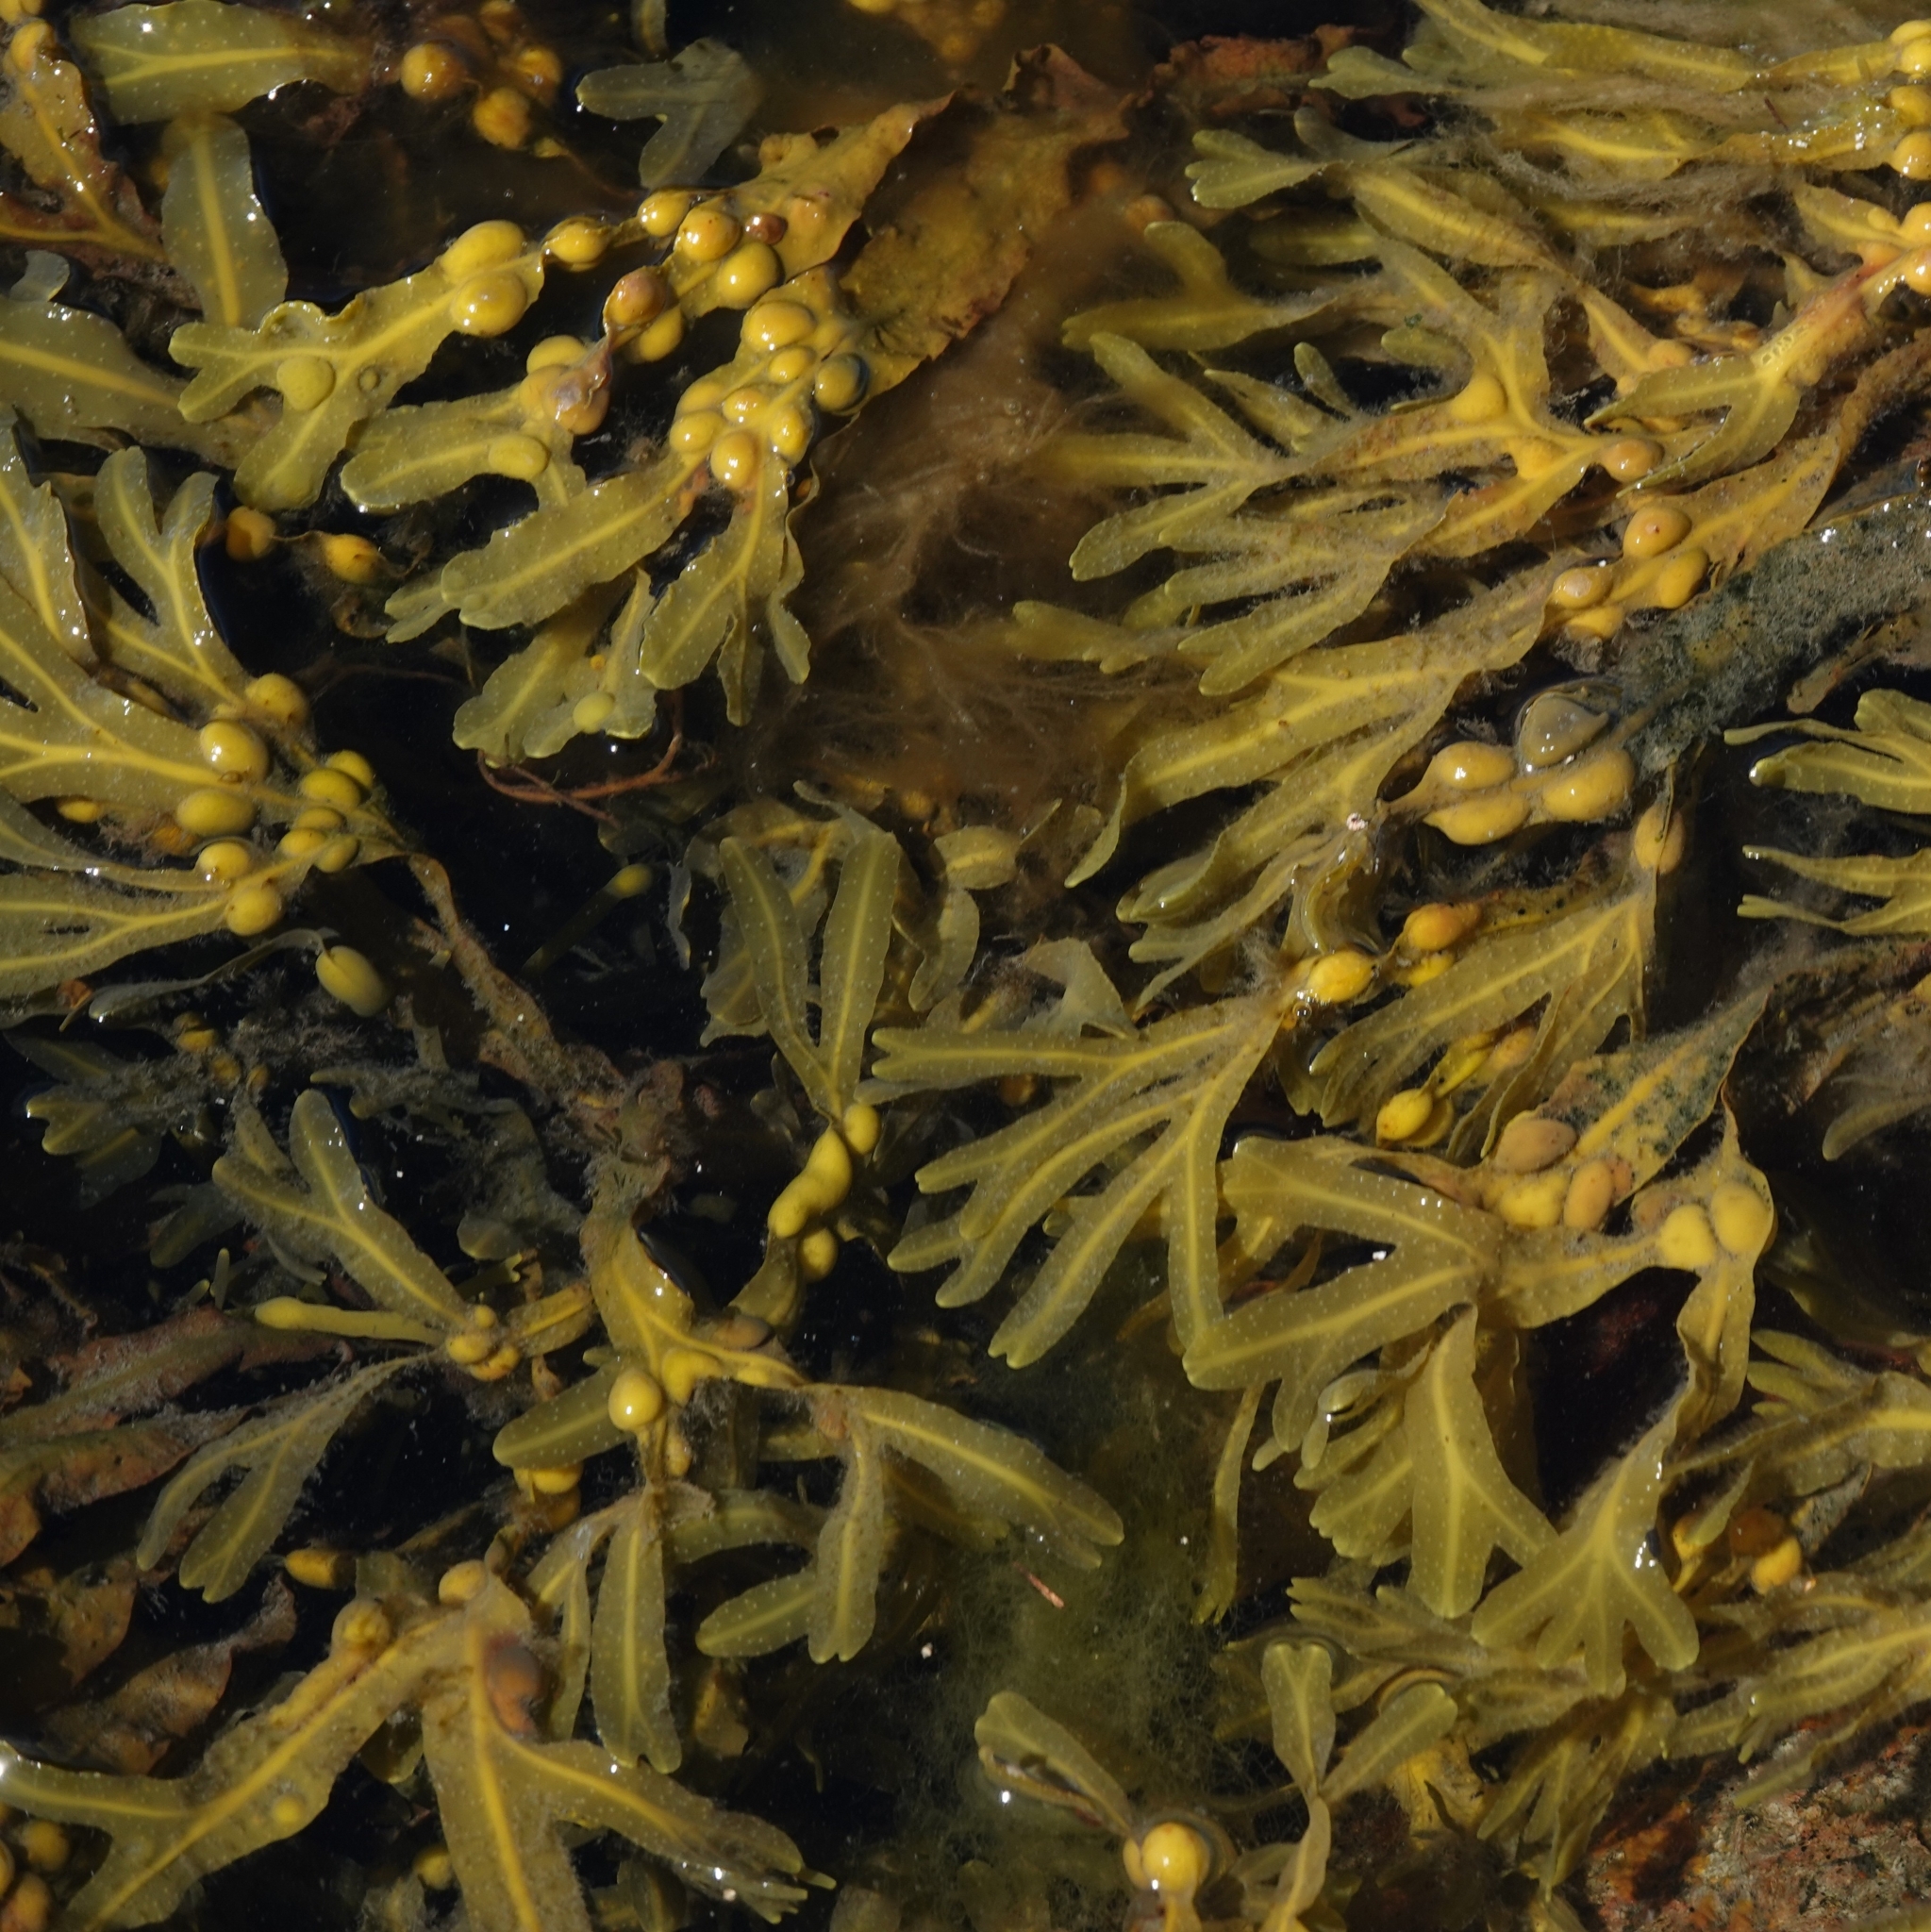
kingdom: Chromista
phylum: Ochrophyta
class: Phaeophyceae
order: Fucales
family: Fucaceae
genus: Fucus
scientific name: Fucus vesiculosus
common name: Bladder wrack
